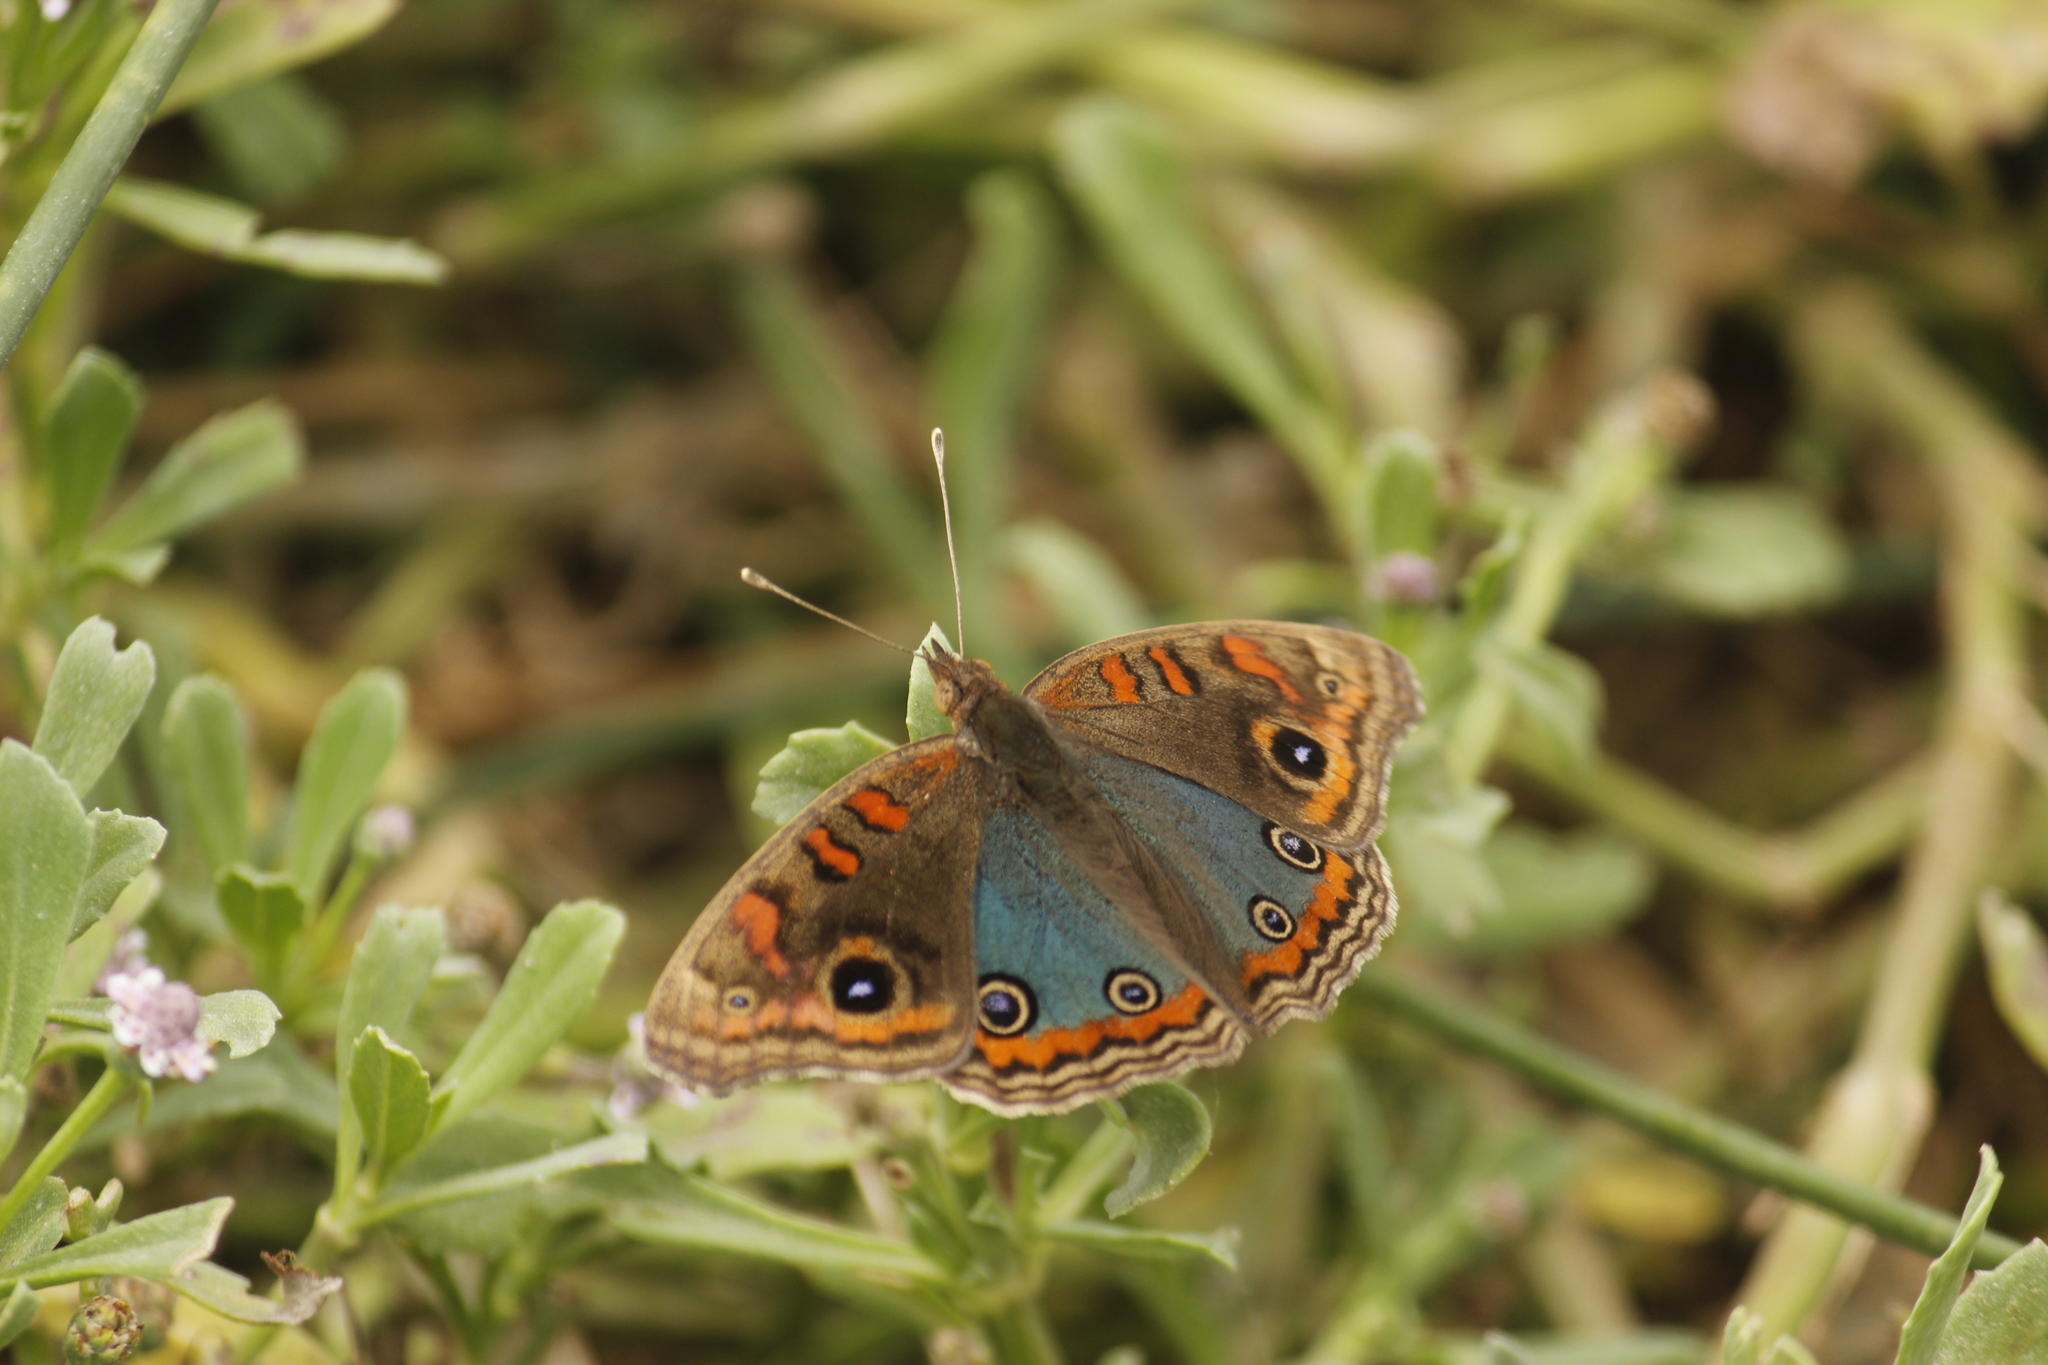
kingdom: Animalia
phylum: Arthropoda
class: Insecta
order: Lepidoptera
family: Nymphalidae
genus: Junonia
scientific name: Junonia lavinia
